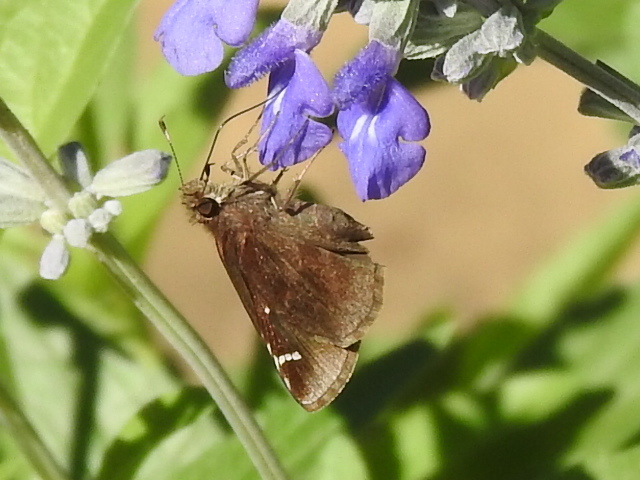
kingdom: Animalia
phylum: Arthropoda
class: Insecta
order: Lepidoptera
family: Hesperiidae
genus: Lerema
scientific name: Lerema accius
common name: Clouded skipper
